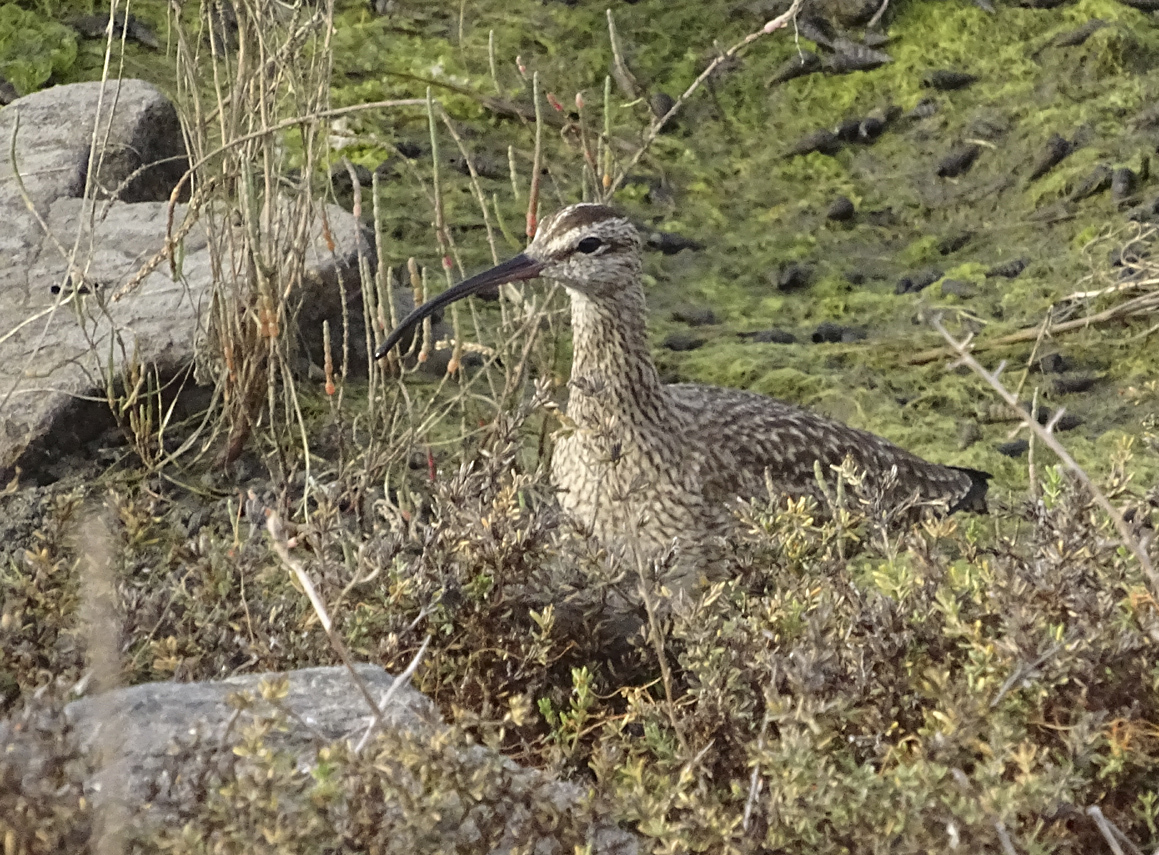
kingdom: Animalia
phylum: Chordata
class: Aves
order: Charadriiformes
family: Scolopacidae
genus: Numenius
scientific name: Numenius phaeopus
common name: Whimbrel
